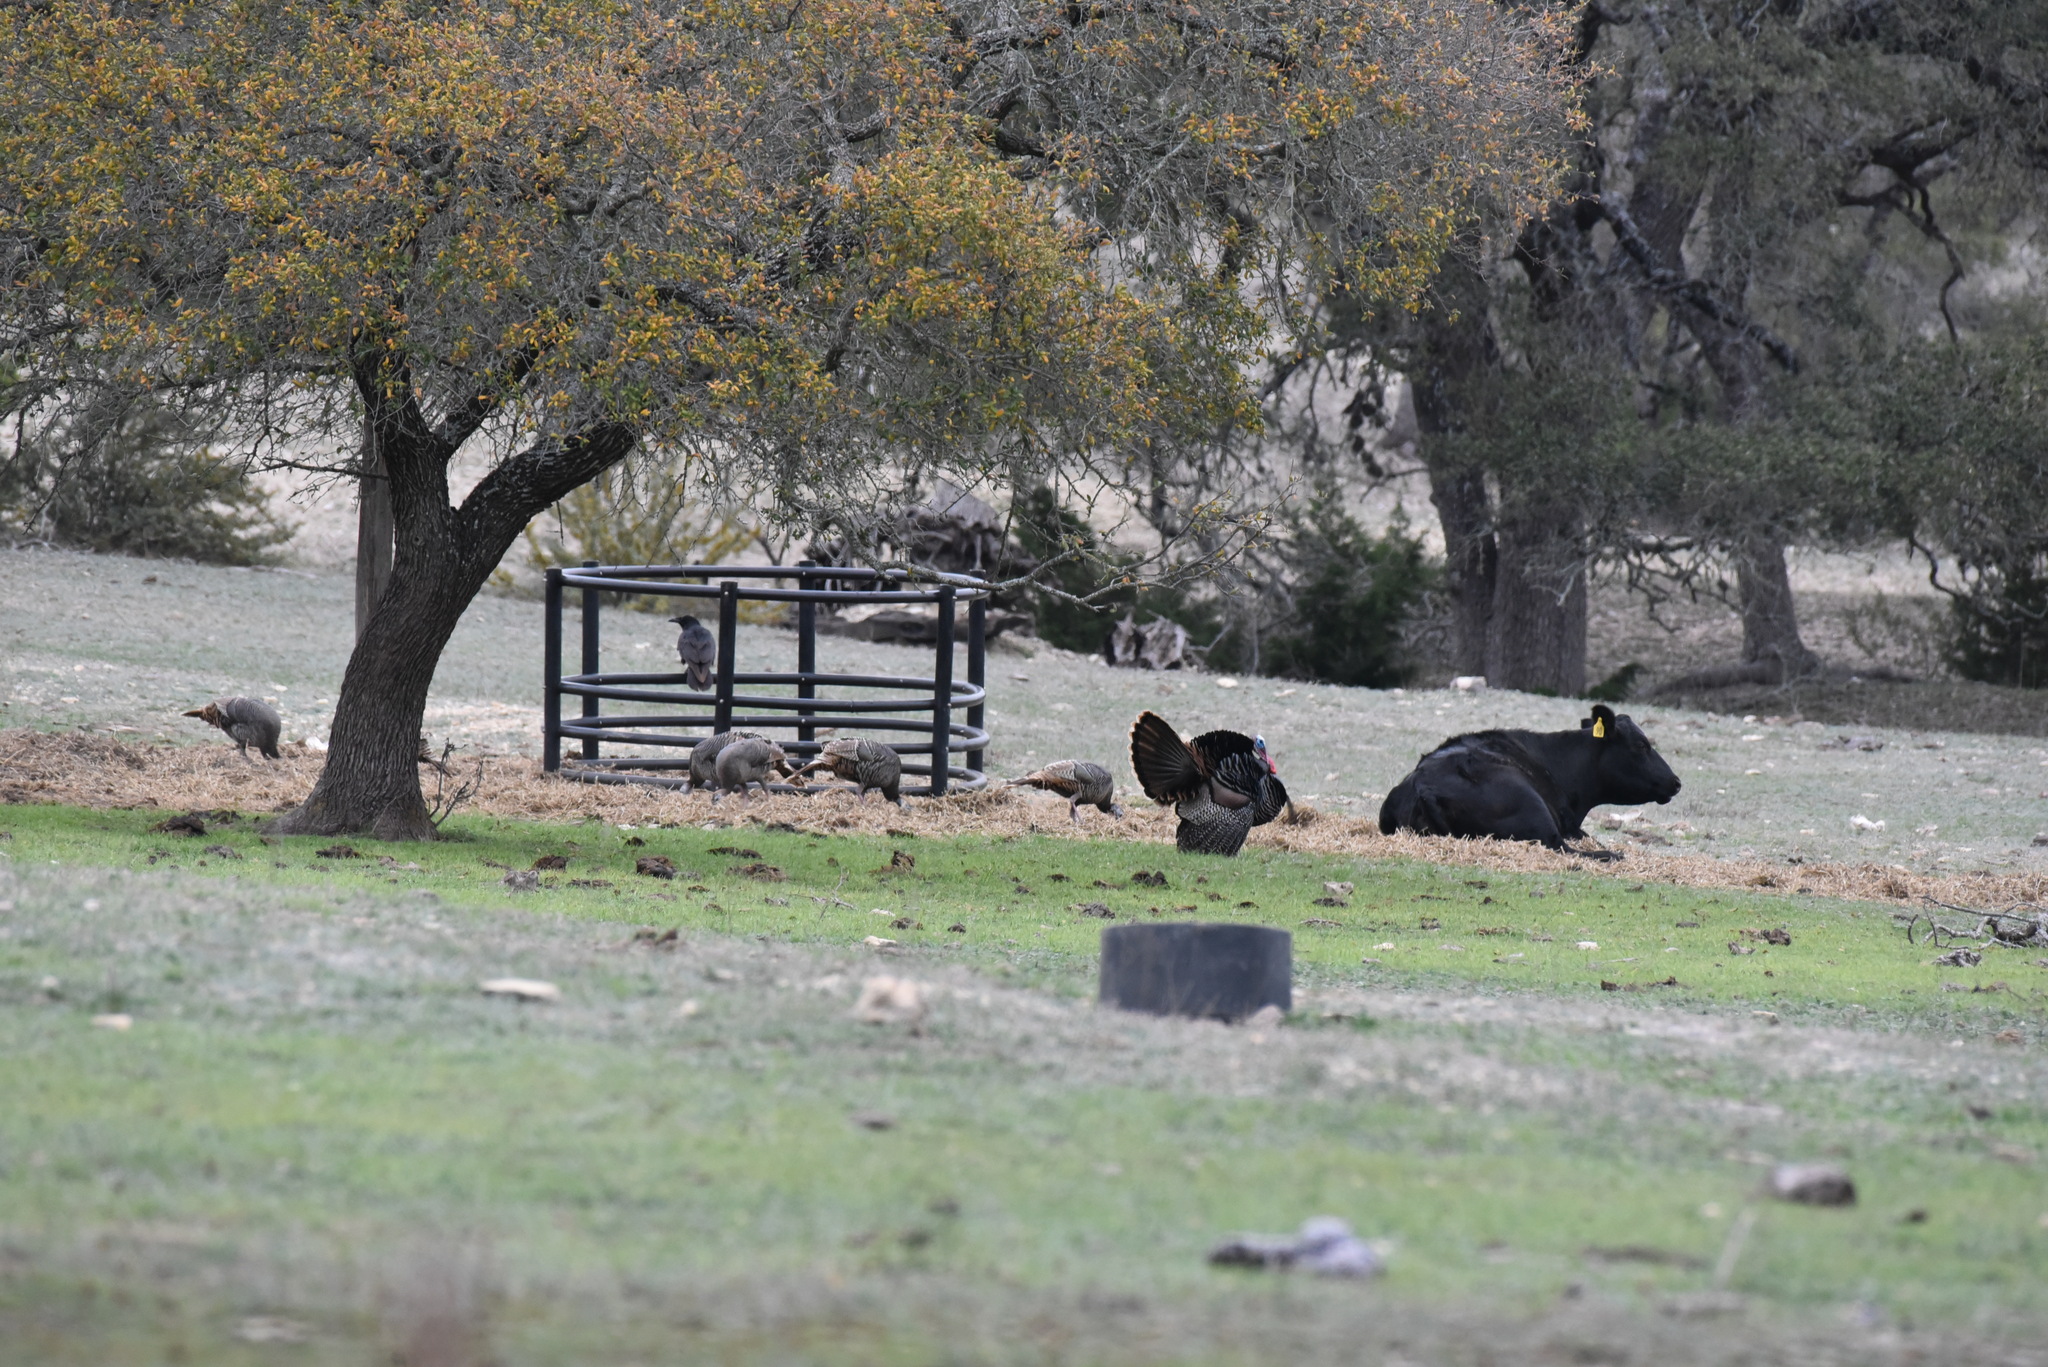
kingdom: Animalia
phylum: Chordata
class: Aves
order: Galliformes
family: Phasianidae
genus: Meleagris
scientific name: Meleagris gallopavo
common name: Wild turkey
